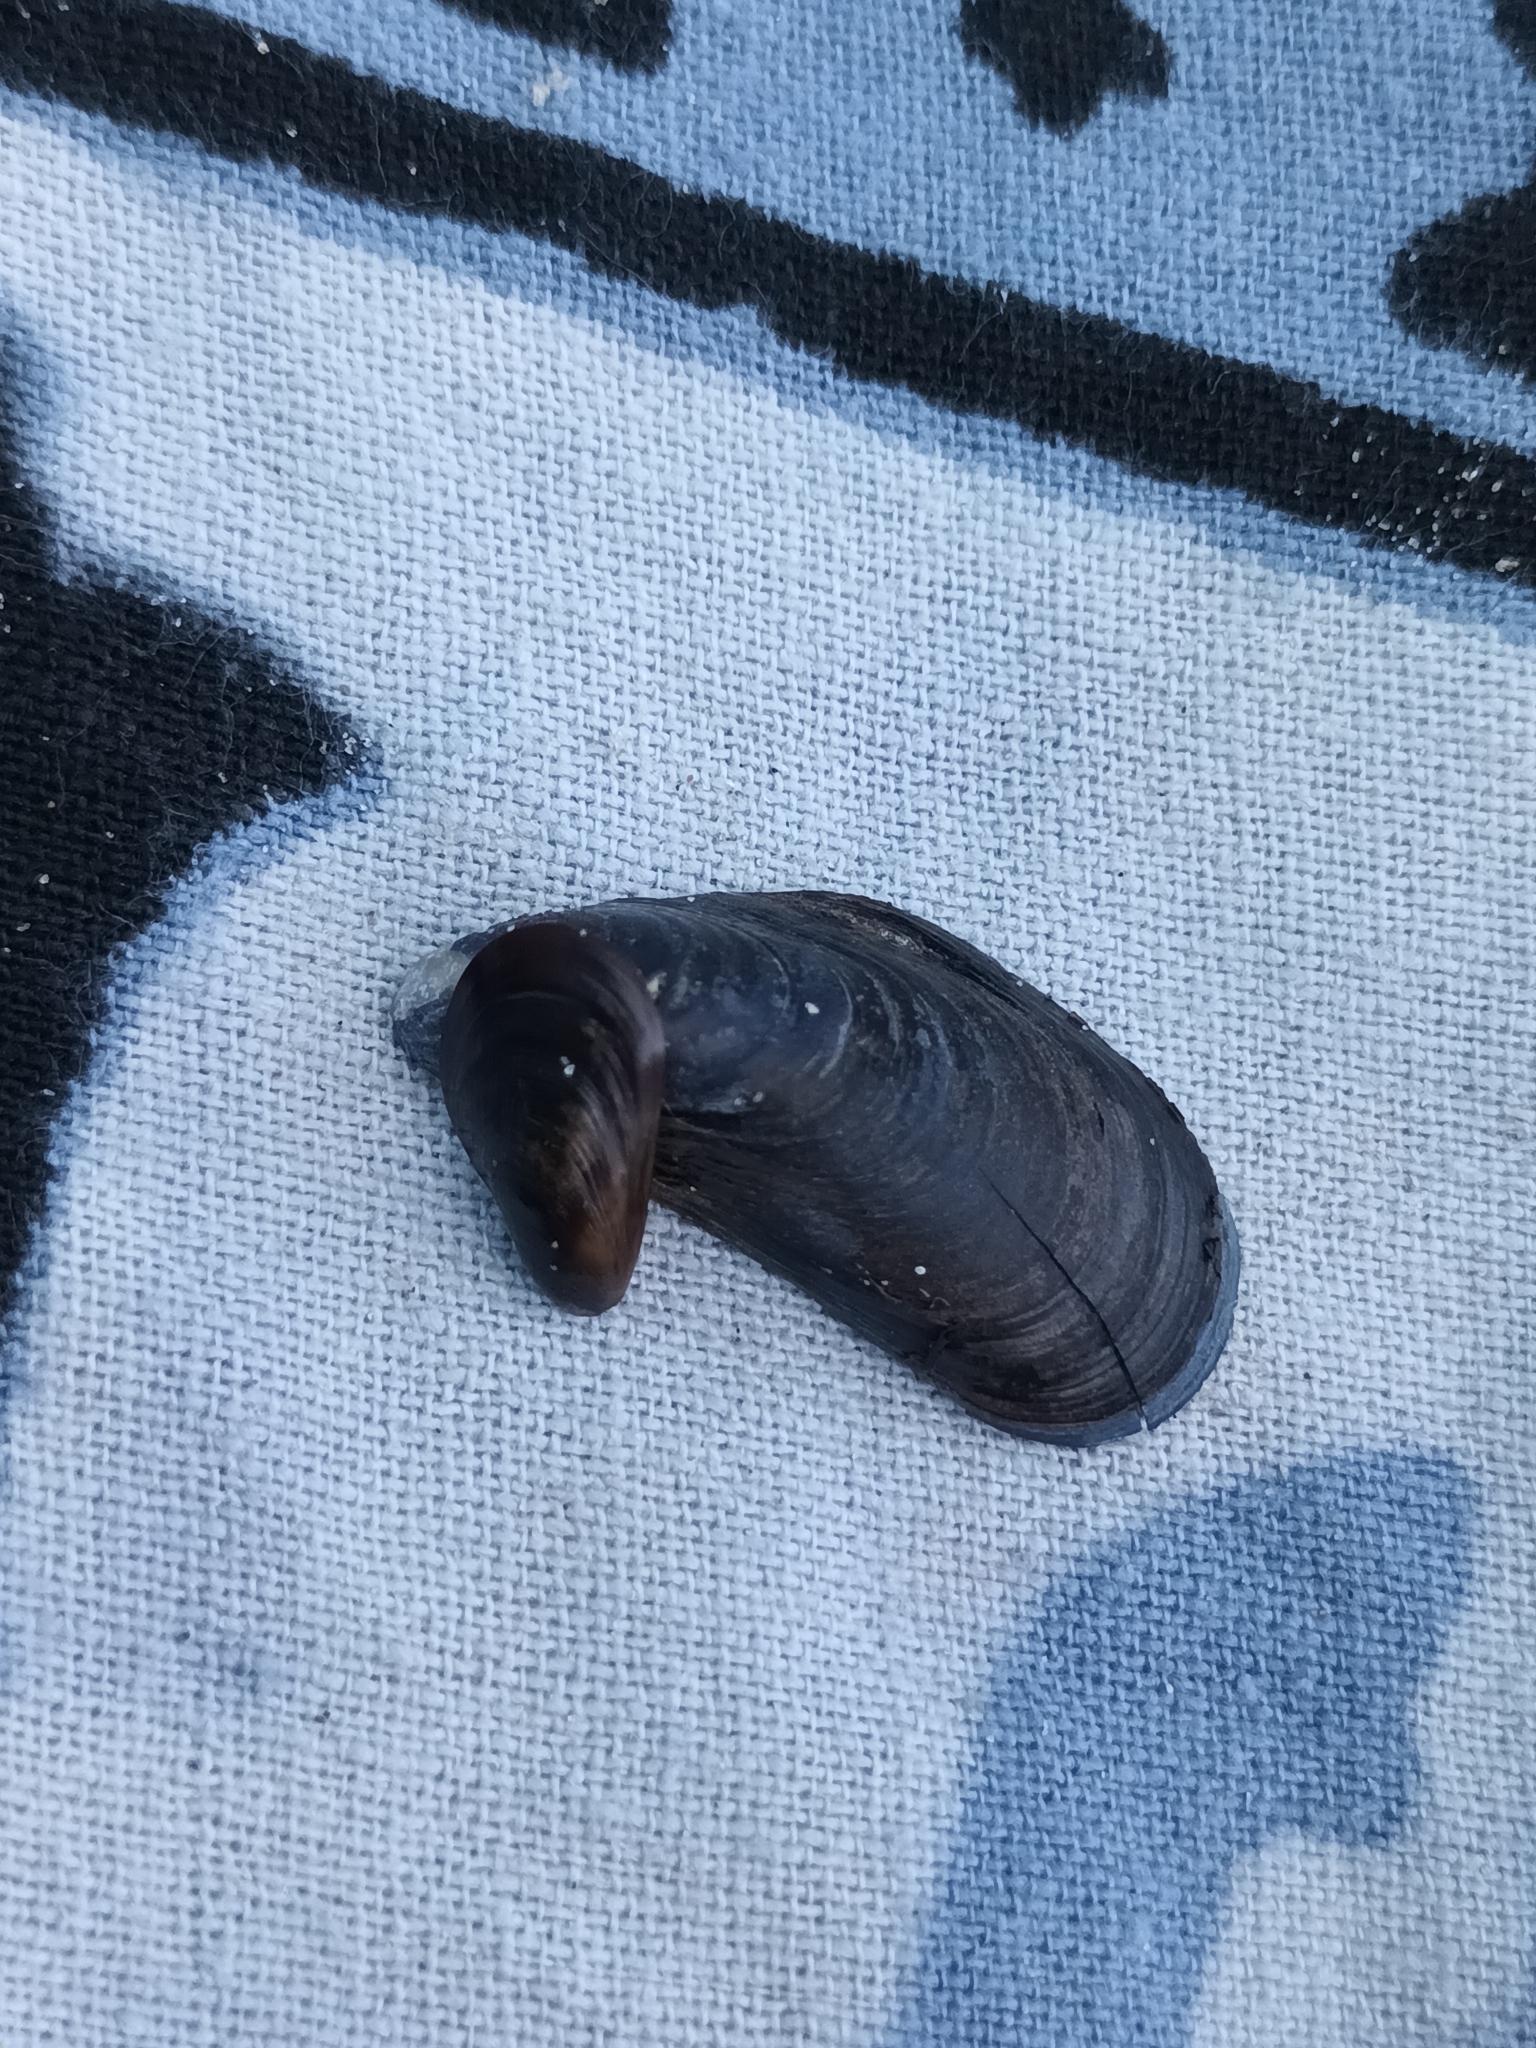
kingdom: Animalia
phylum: Mollusca
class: Bivalvia
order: Mytilida
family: Mytilidae
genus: Mytilus
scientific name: Mytilus edulis
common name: Blue mussel
